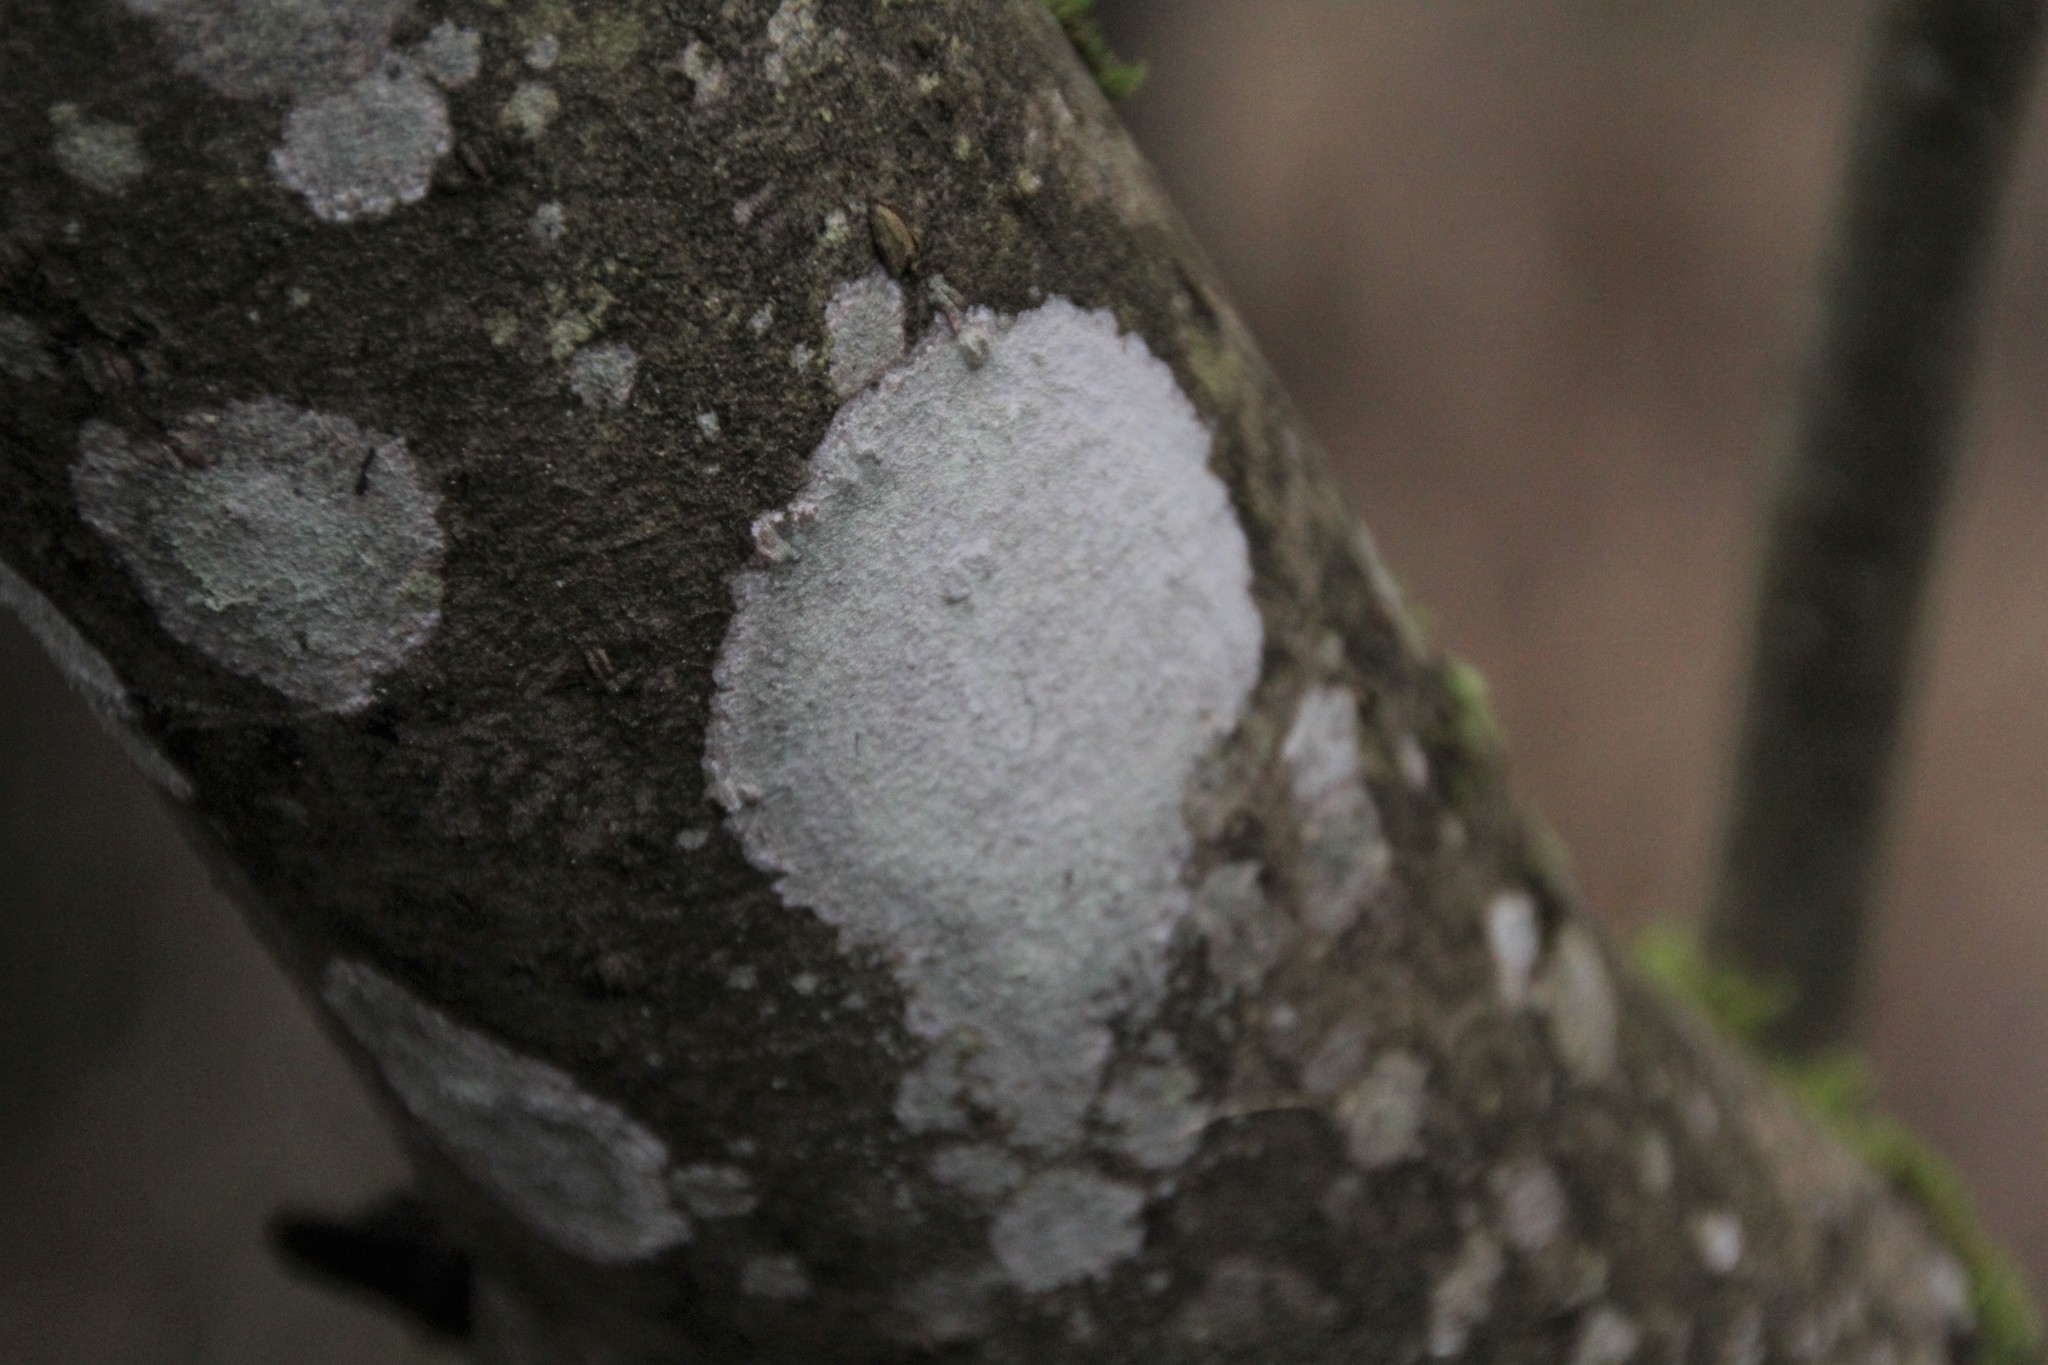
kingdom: Fungi
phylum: Ascomycota
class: Lecanoromycetes
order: Ostropales
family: Phlyctidaceae
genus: Phlyctis
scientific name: Phlyctis argena
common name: Whitewash lichen
